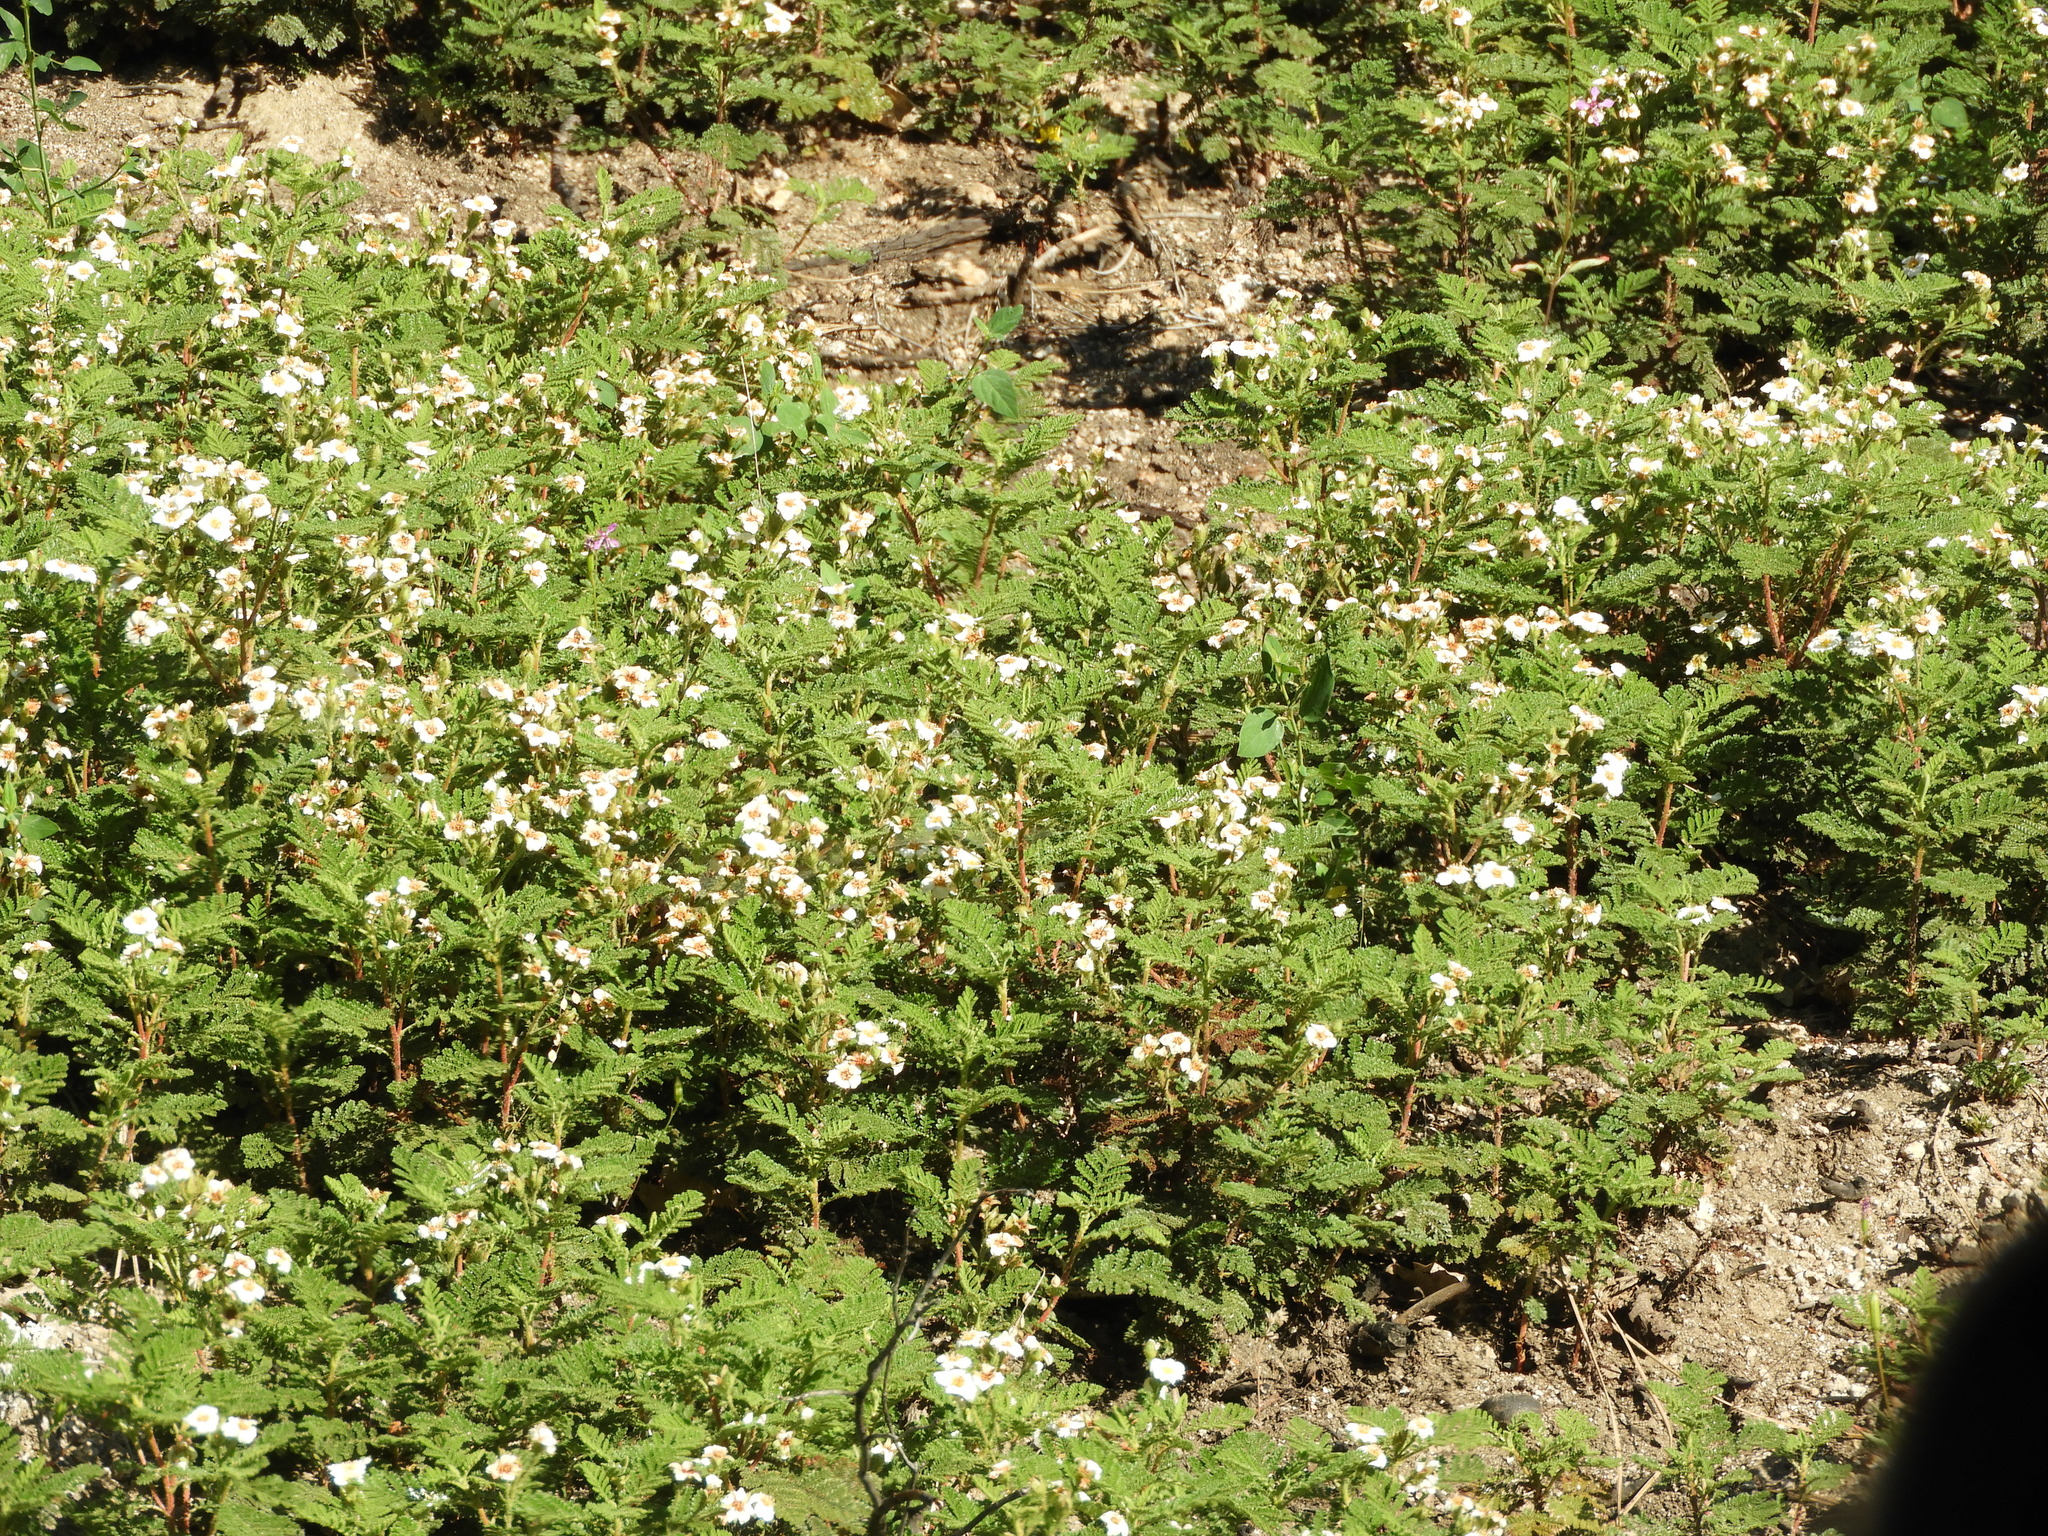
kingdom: Plantae
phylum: Tracheophyta
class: Magnoliopsida
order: Rosales
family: Rosaceae
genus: Chamaebatia
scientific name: Chamaebatia foliolosa
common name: Mountain misery
